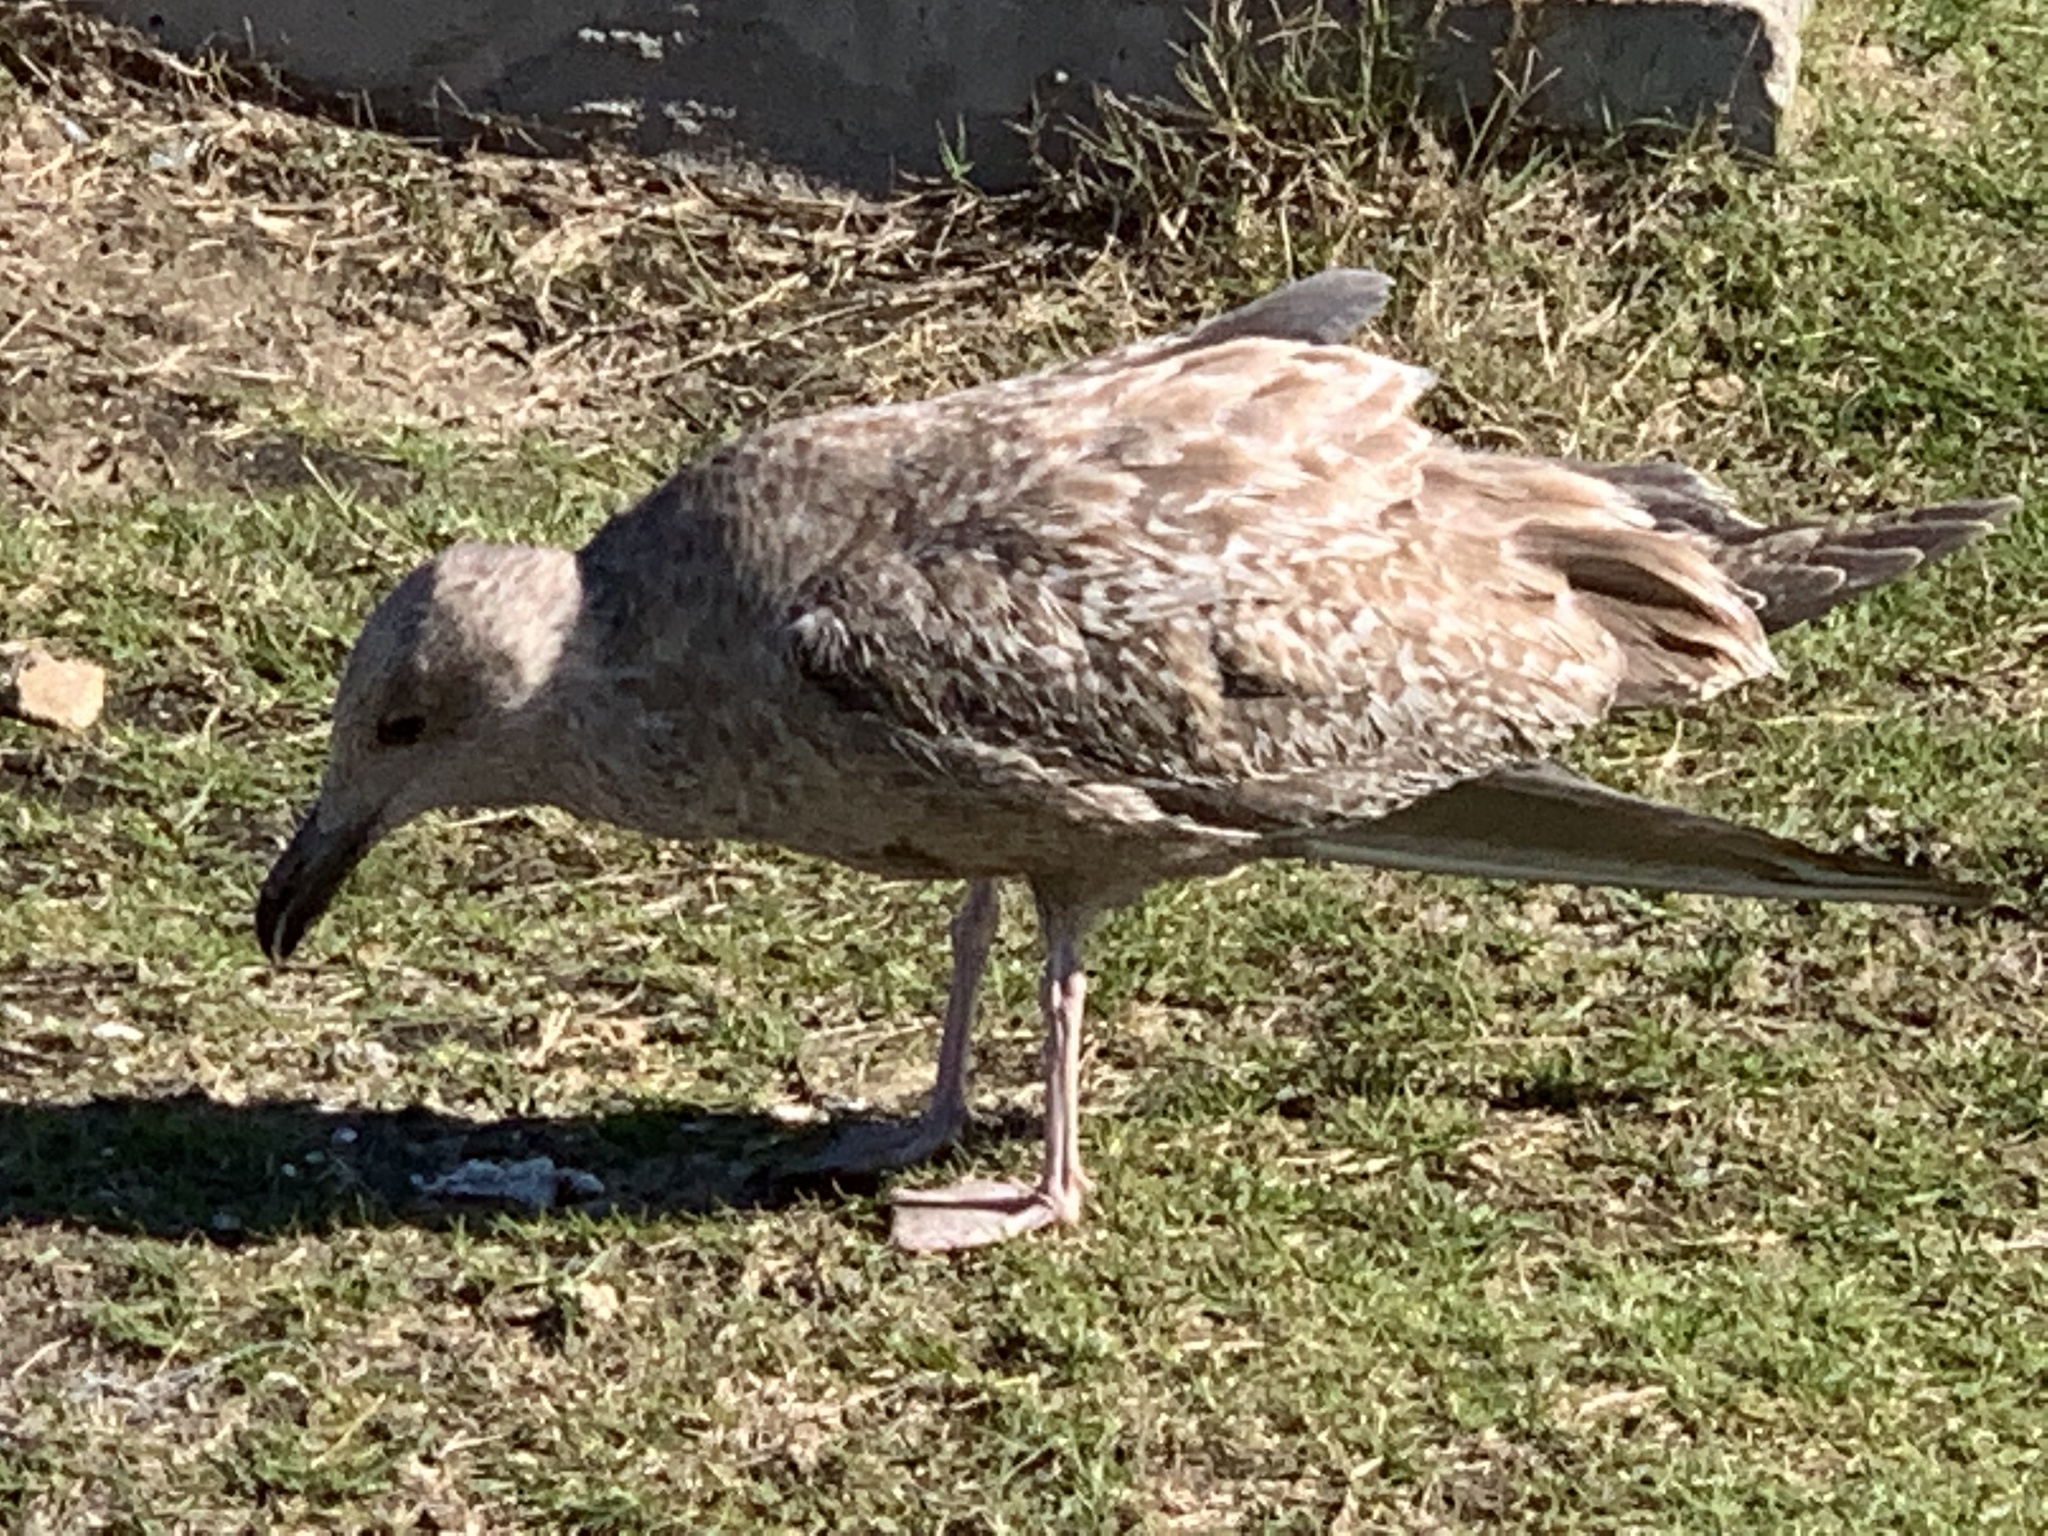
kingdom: Animalia
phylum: Chordata
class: Aves
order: Charadriiformes
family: Laridae
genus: Larus
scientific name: Larus argentatus
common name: Herring gull
